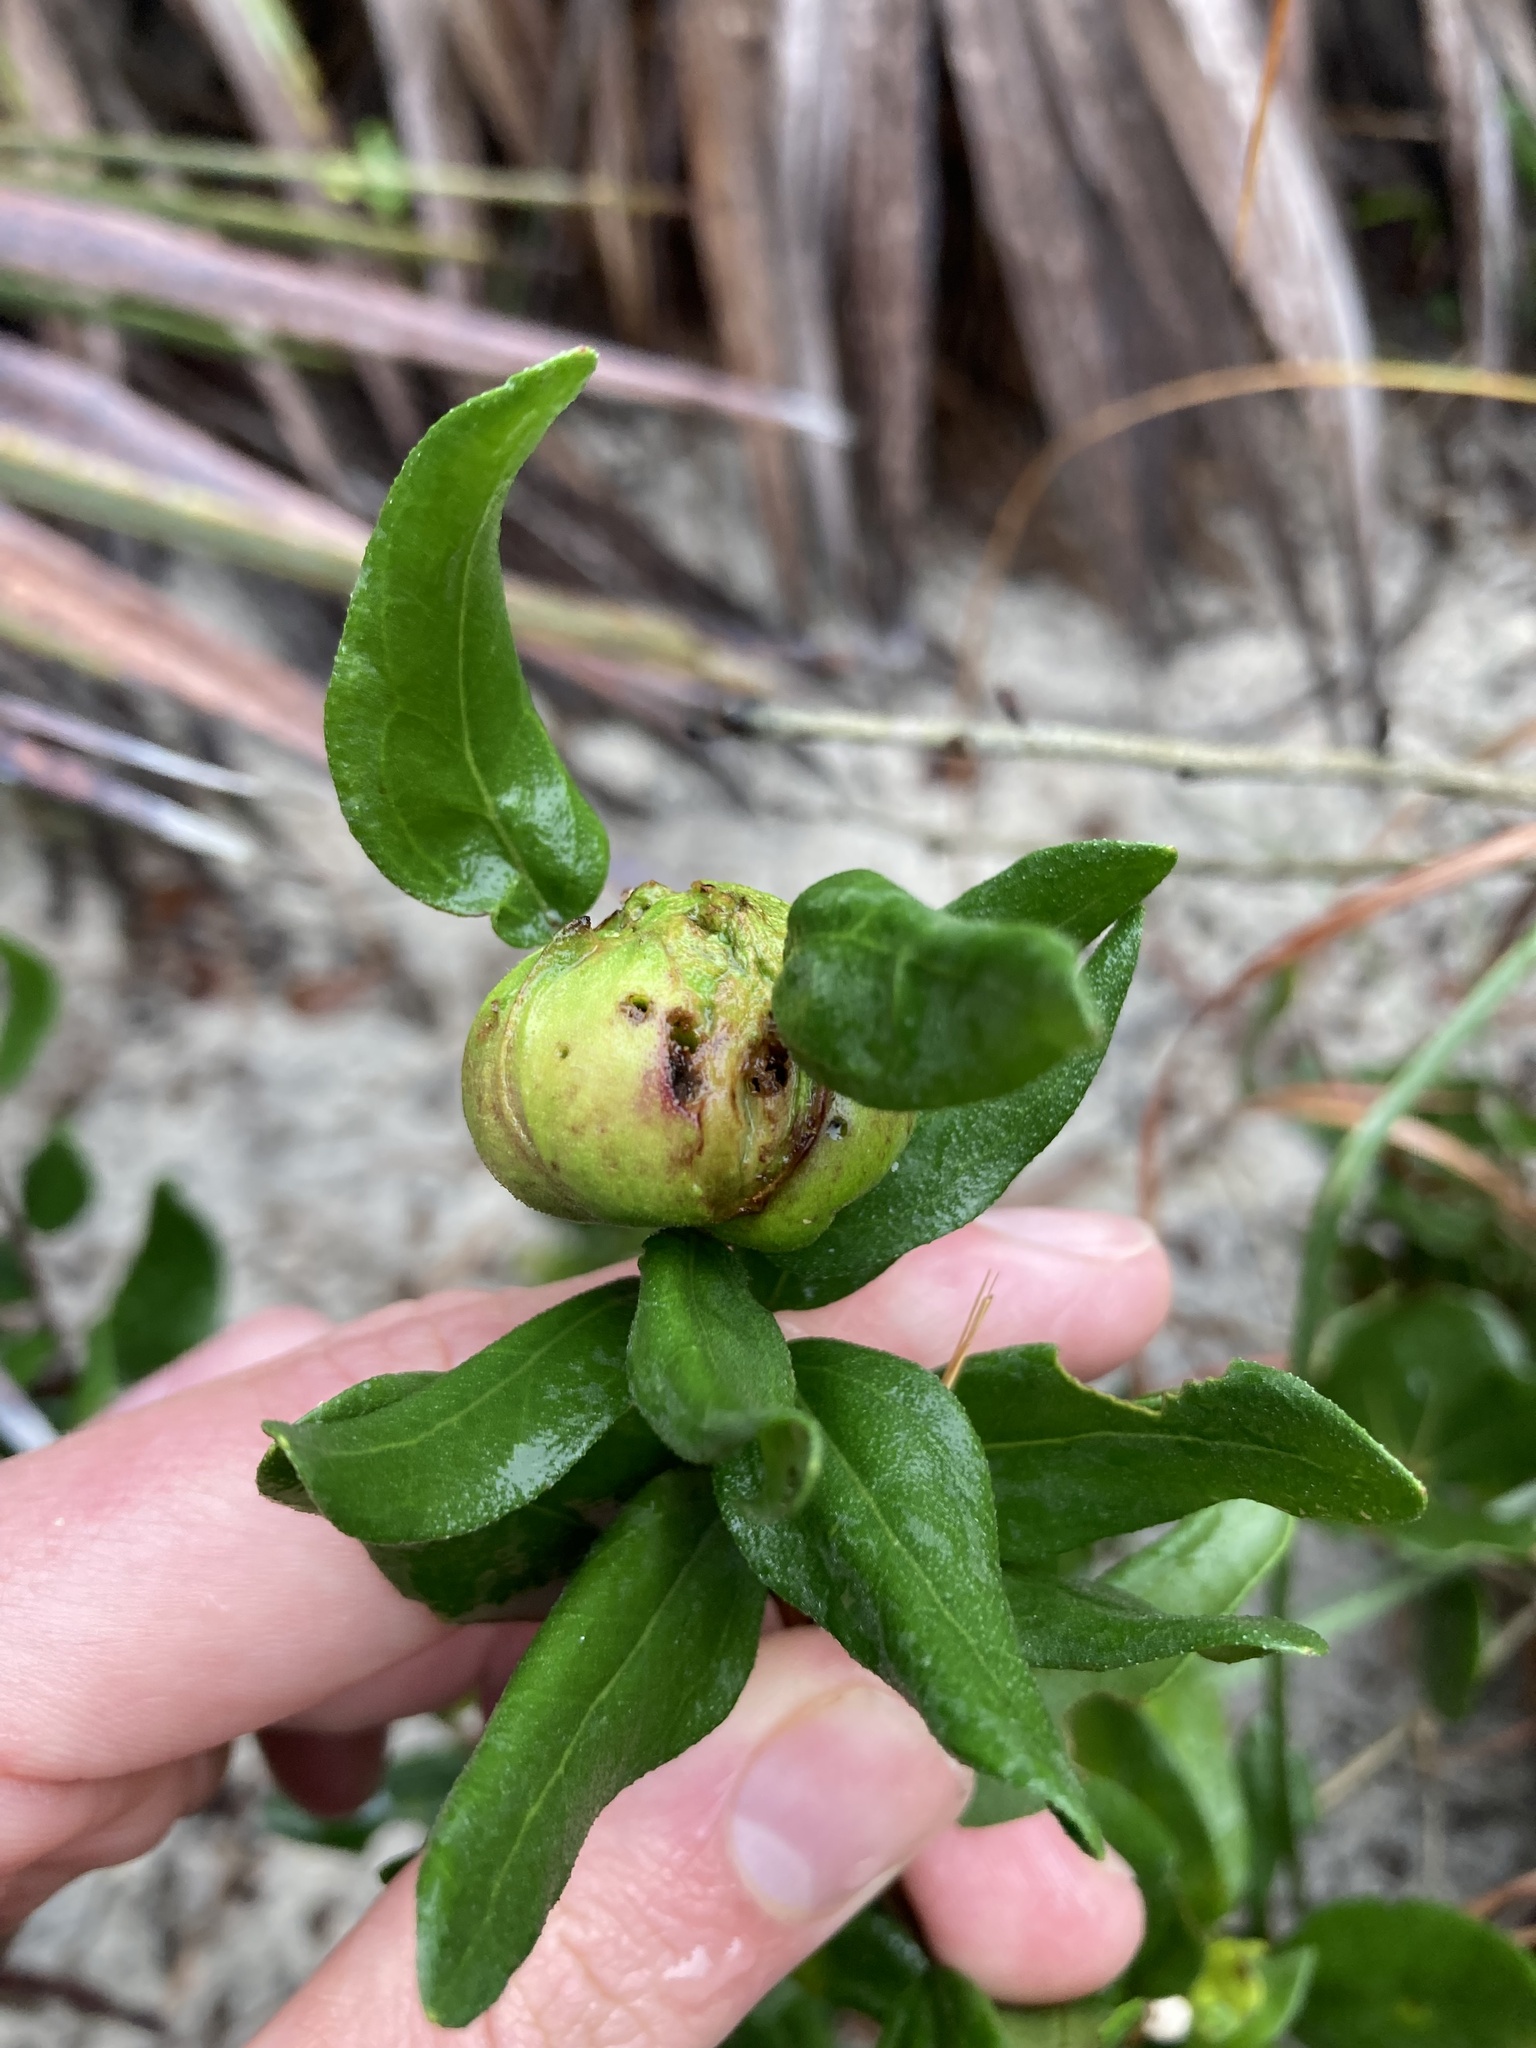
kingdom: Plantae
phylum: Tracheophyta
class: Magnoliopsida
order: Asterales
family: Asteraceae
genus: Palafoxia
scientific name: Palafoxia feayi
